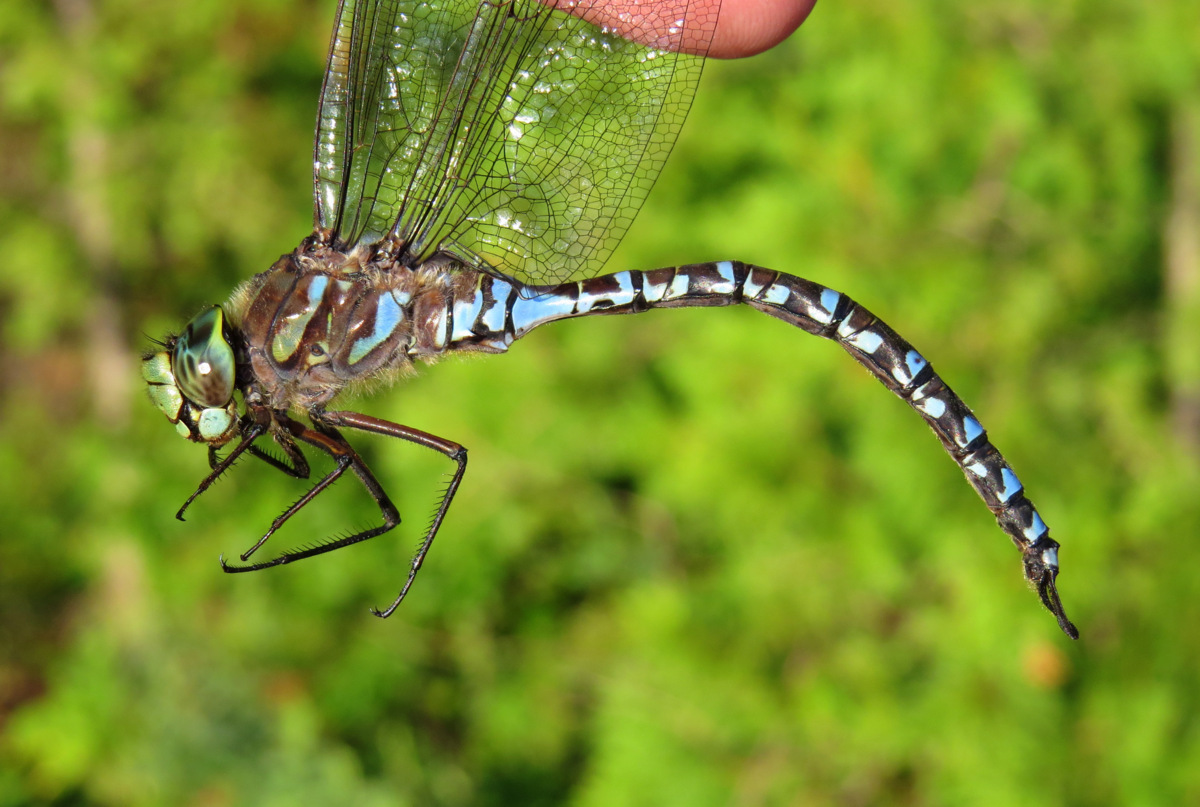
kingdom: Animalia
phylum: Arthropoda
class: Insecta
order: Odonata
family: Aeshnidae
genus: Aeshna
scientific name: Aeshna eremita
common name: Lake darner
